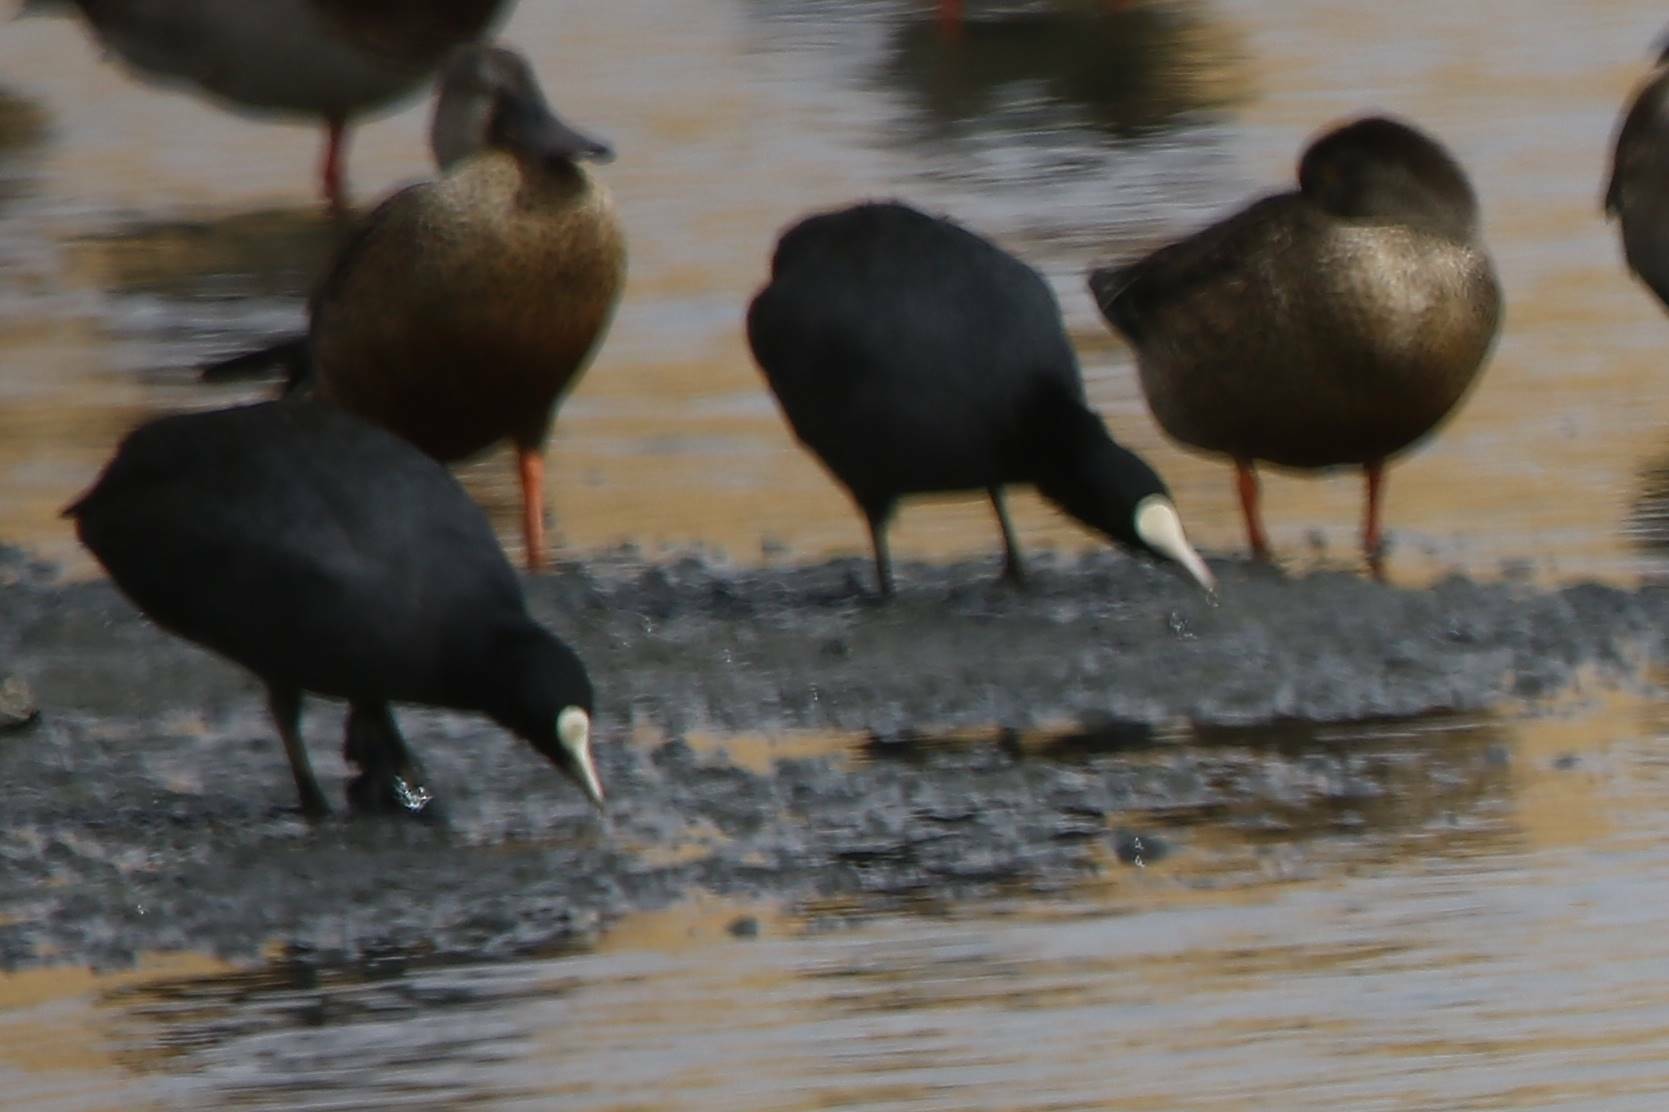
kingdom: Animalia
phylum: Chordata
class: Aves
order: Gruiformes
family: Rallidae
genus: Fulica
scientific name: Fulica atra
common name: Eurasian coot
